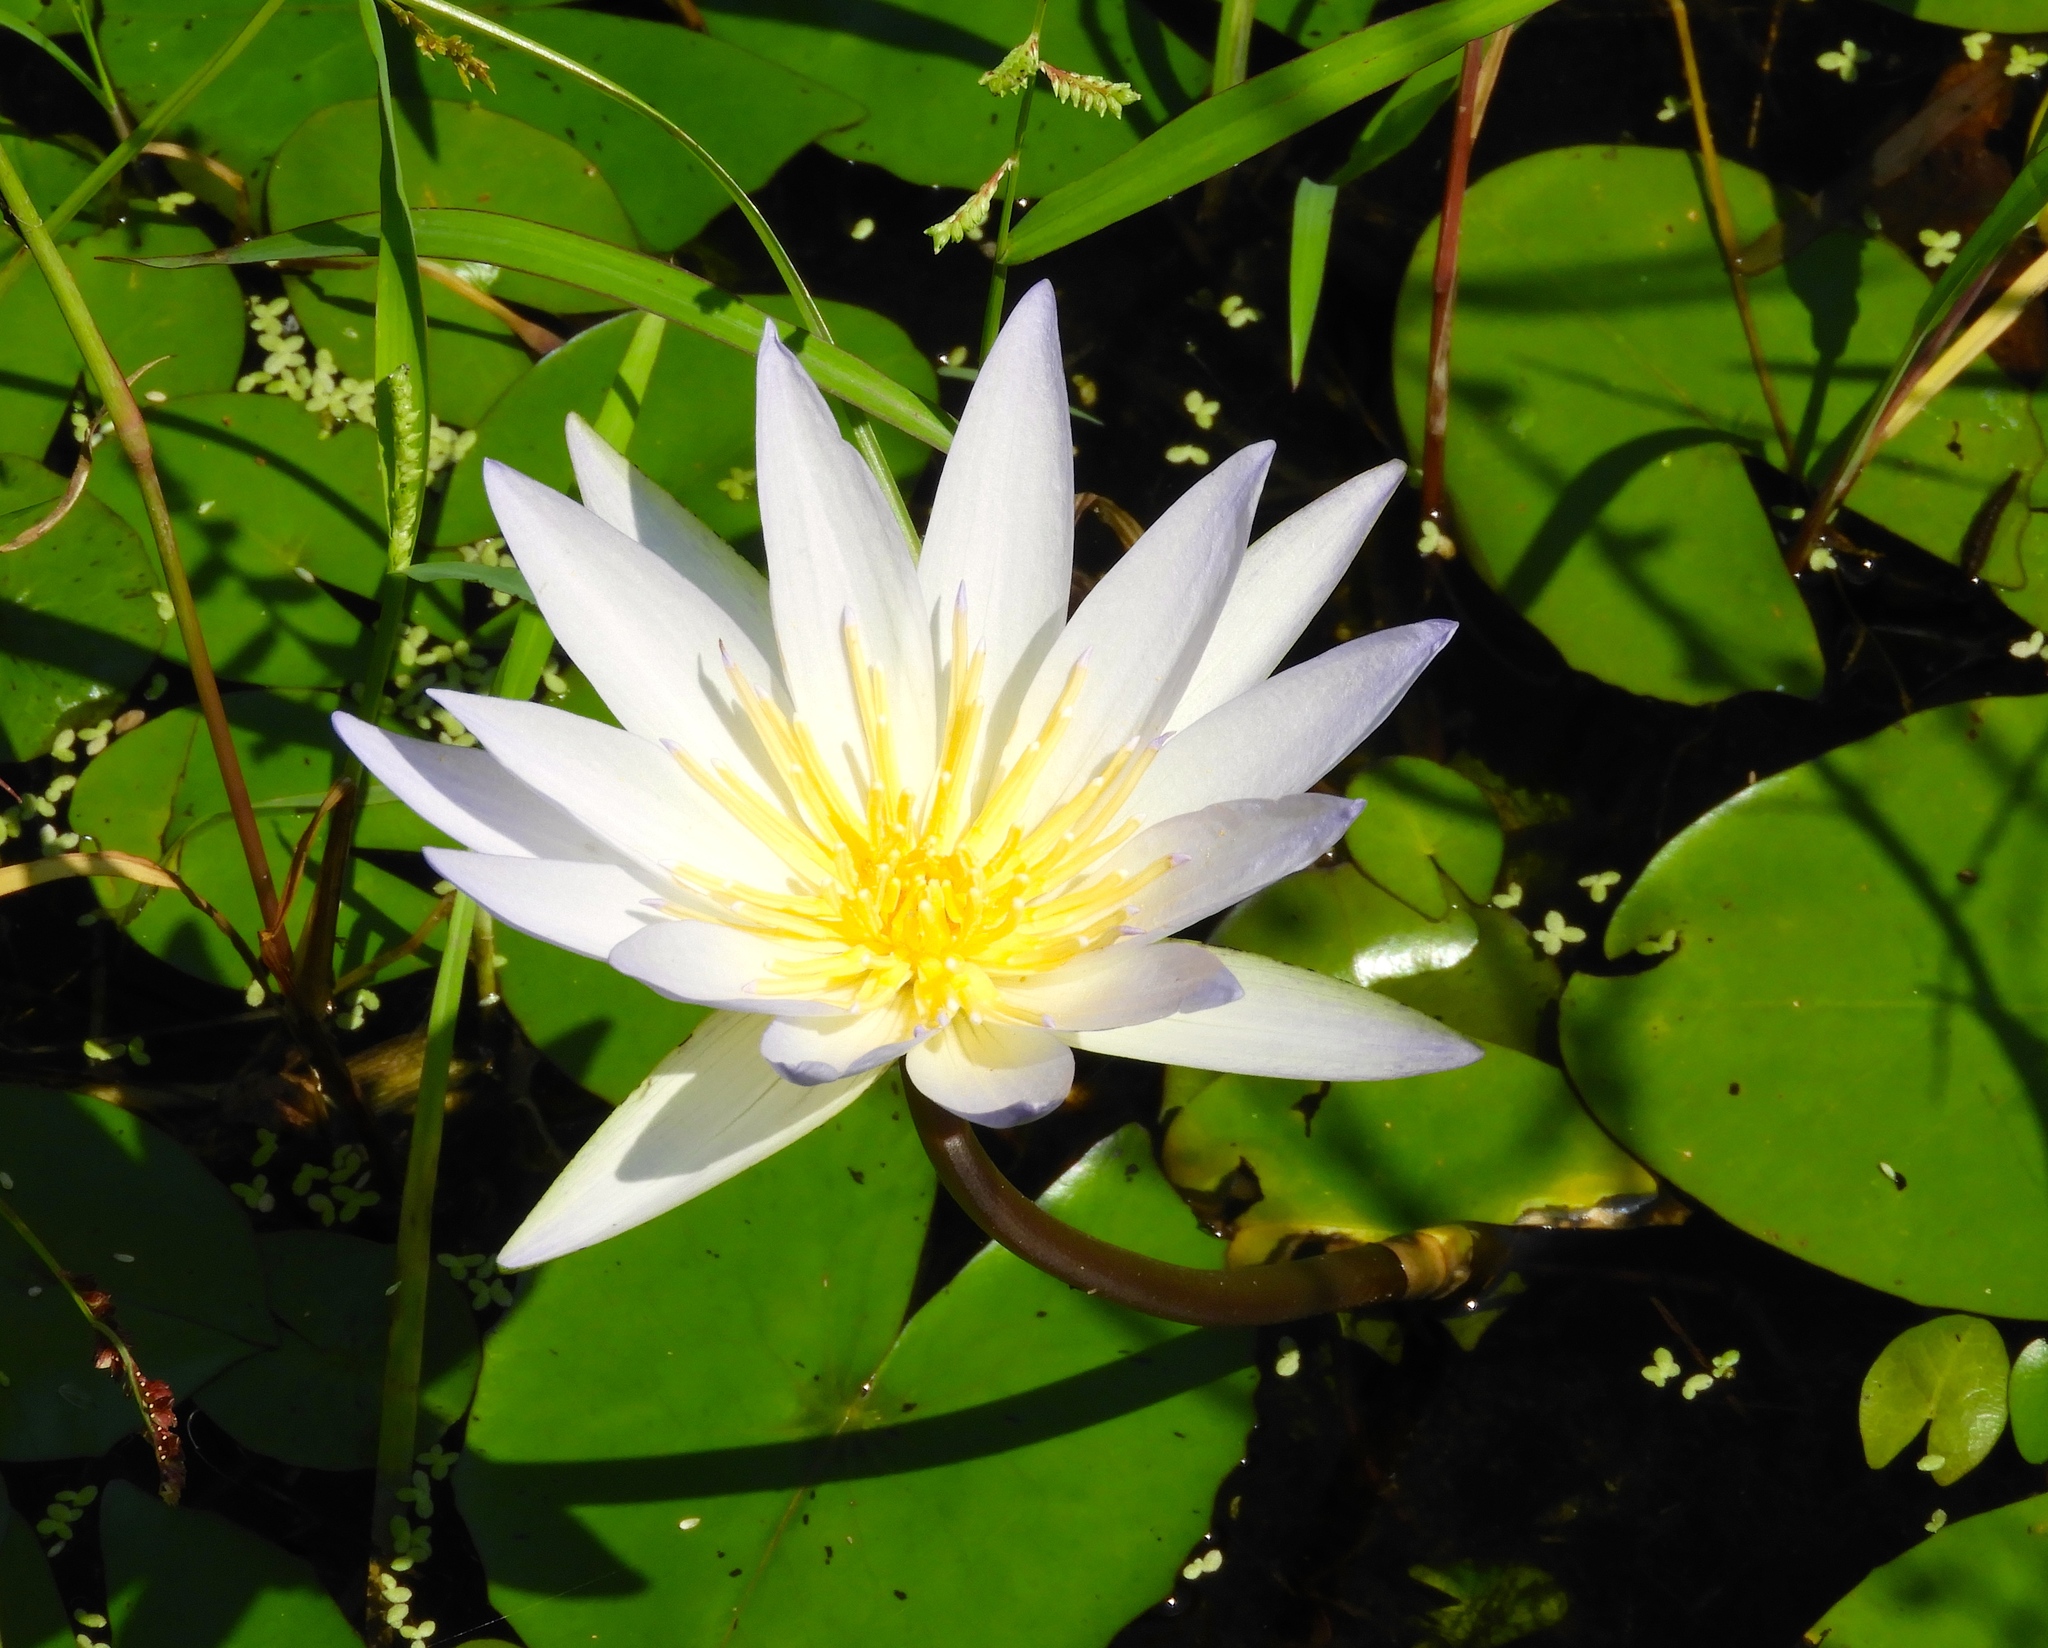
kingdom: Plantae
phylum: Tracheophyta
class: Magnoliopsida
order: Nymphaeales
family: Nymphaeaceae
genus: Nymphaea
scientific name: Nymphaea elegans
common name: Blue water-lily
